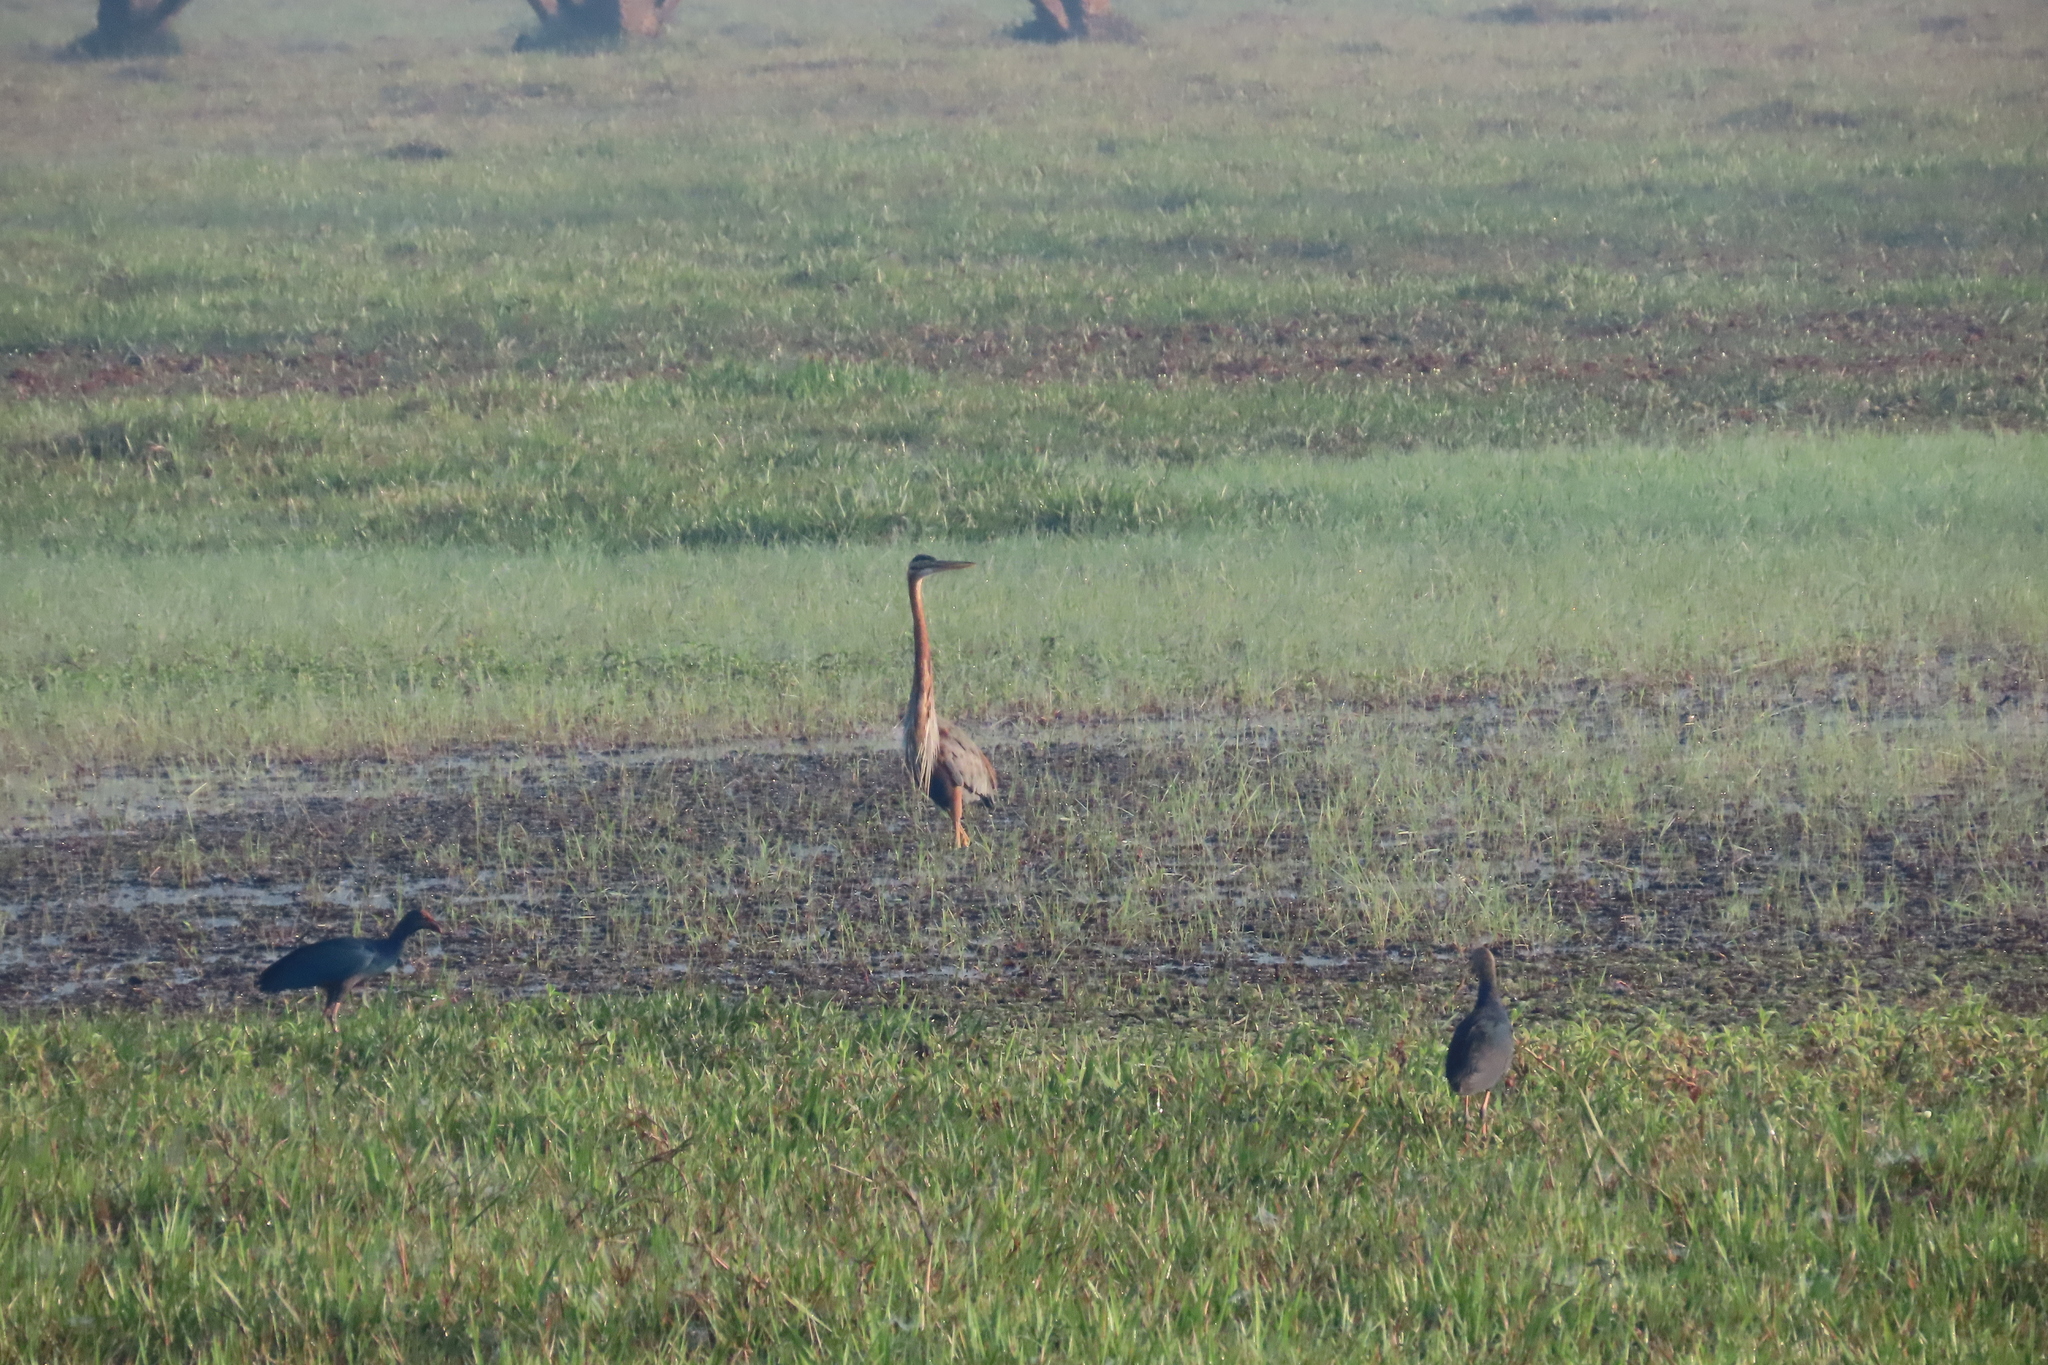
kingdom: Animalia
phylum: Chordata
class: Aves
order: Pelecaniformes
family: Ardeidae
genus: Ardea
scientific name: Ardea purpurea
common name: Purple heron
